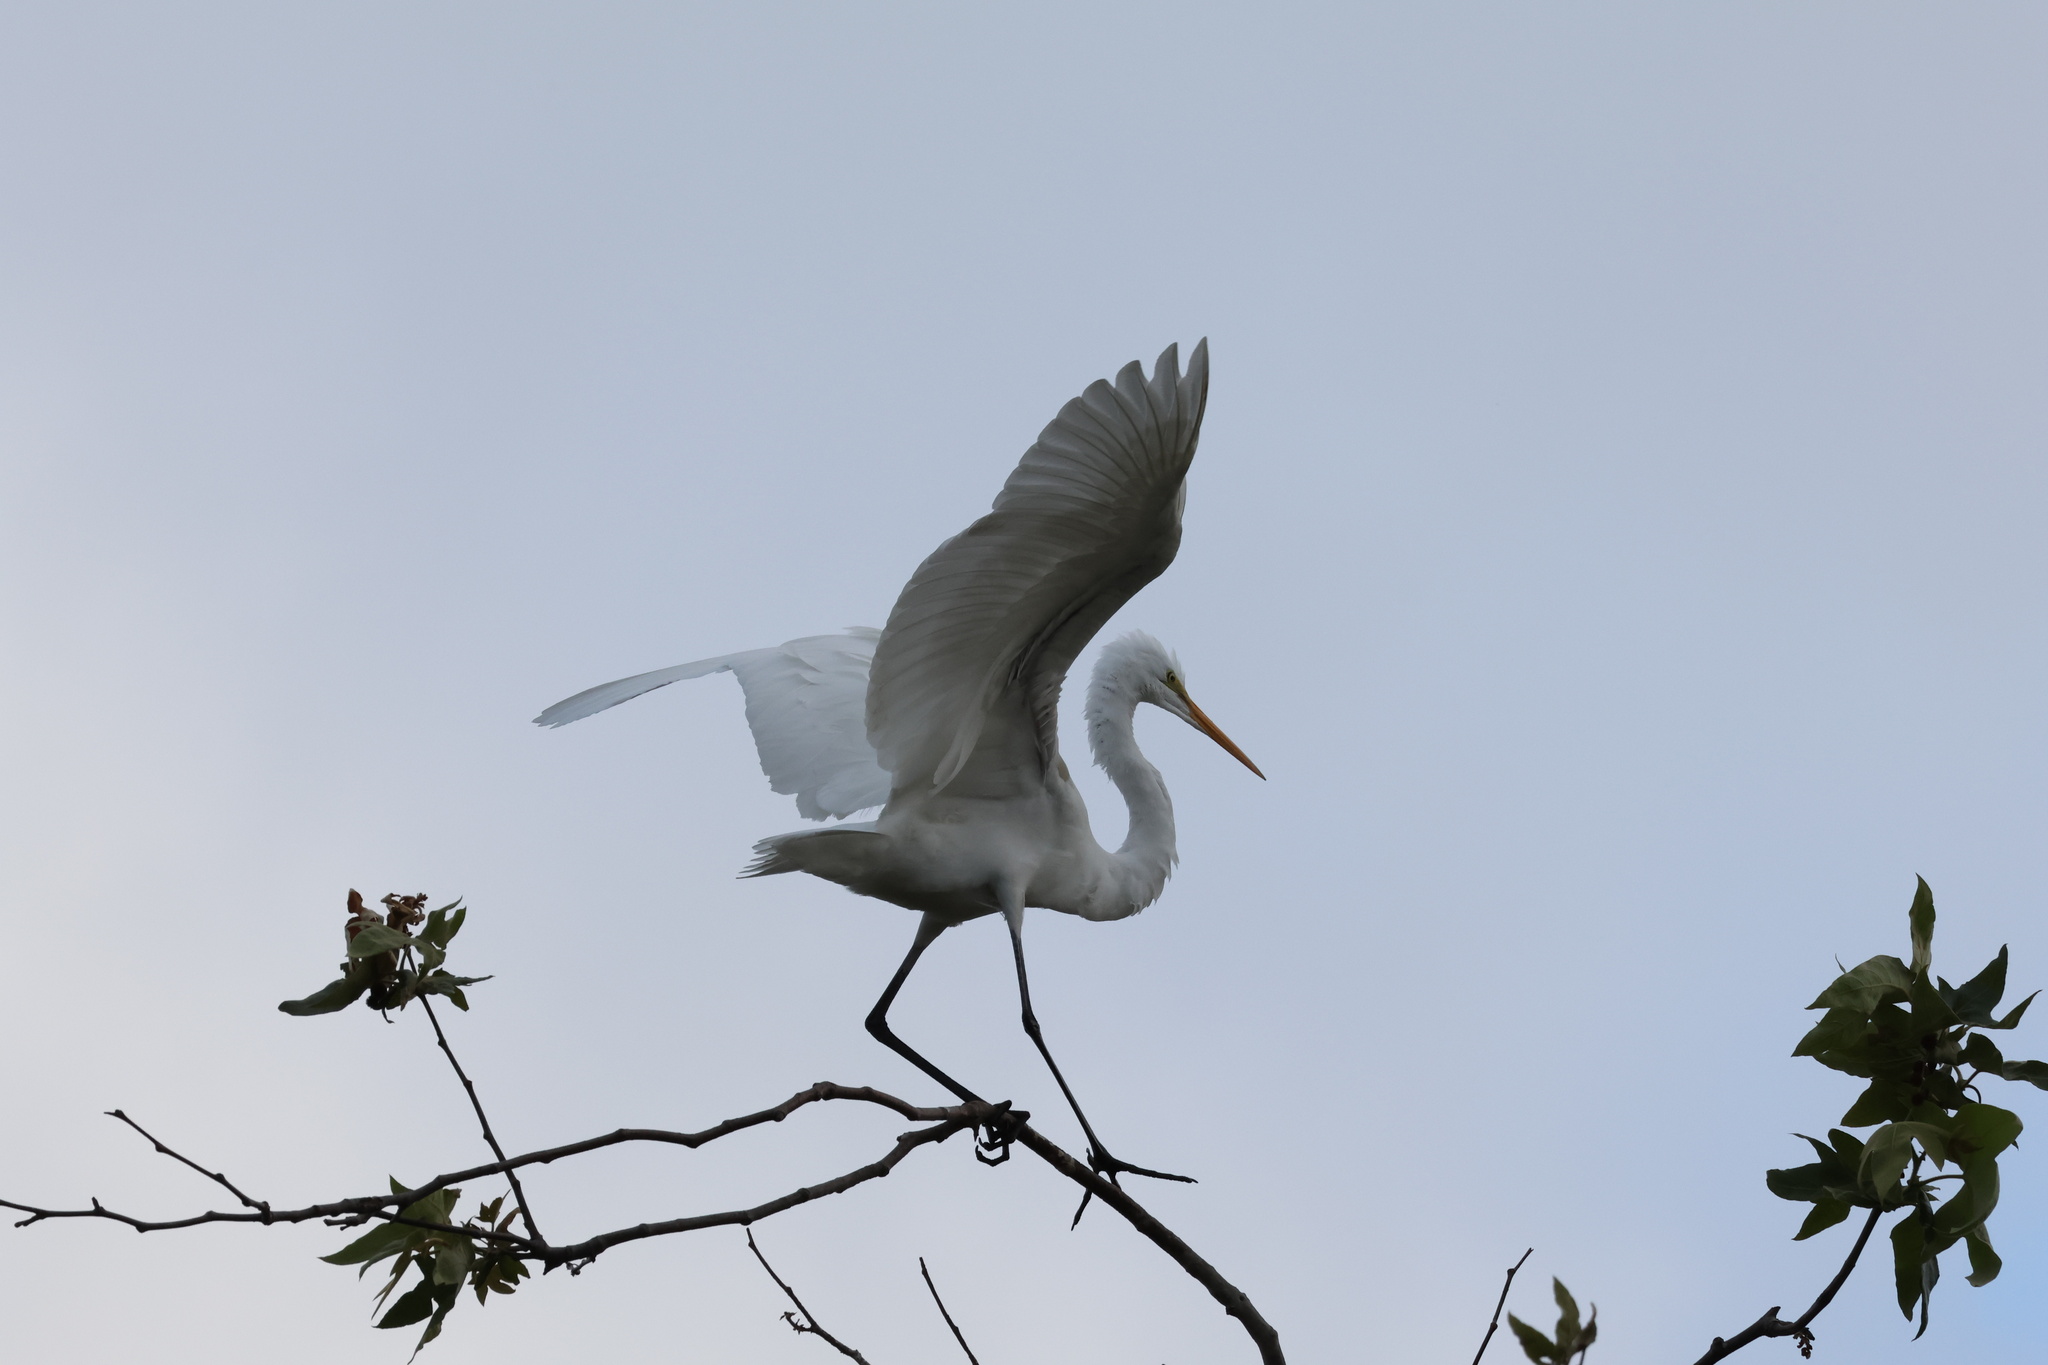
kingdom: Animalia
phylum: Chordata
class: Aves
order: Pelecaniformes
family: Ardeidae
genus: Ardea
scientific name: Ardea alba
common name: Great egret
